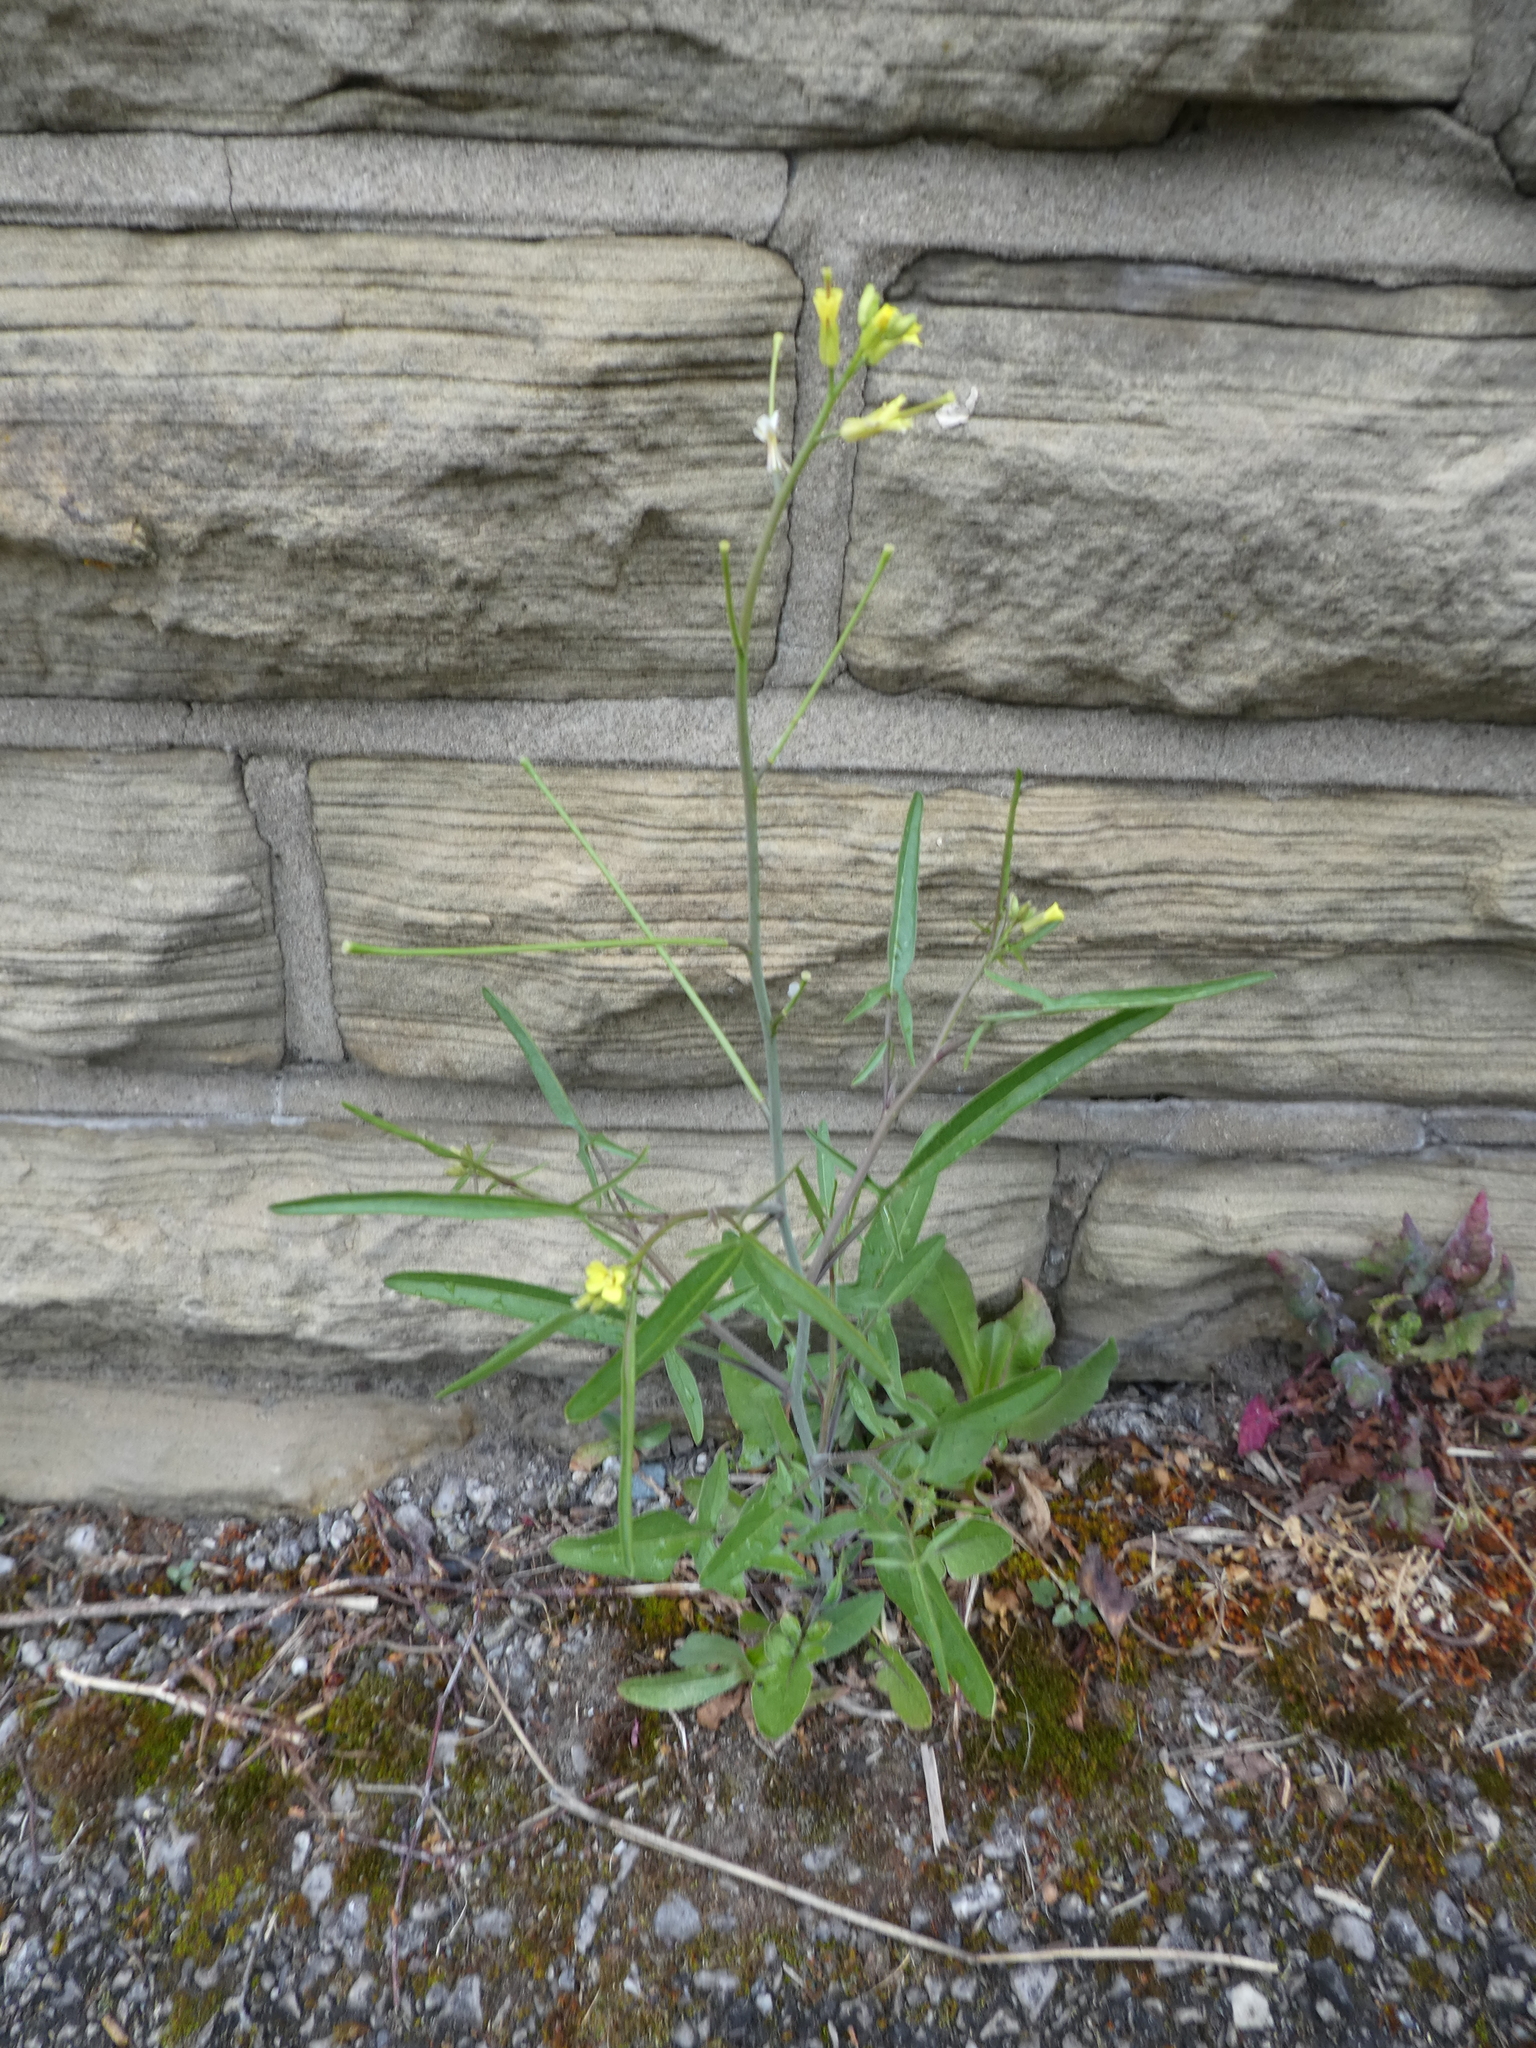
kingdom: Plantae
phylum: Tracheophyta
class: Magnoliopsida
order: Brassicales
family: Brassicaceae
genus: Sisymbrium
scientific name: Sisymbrium orientale
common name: Eastern rocket
